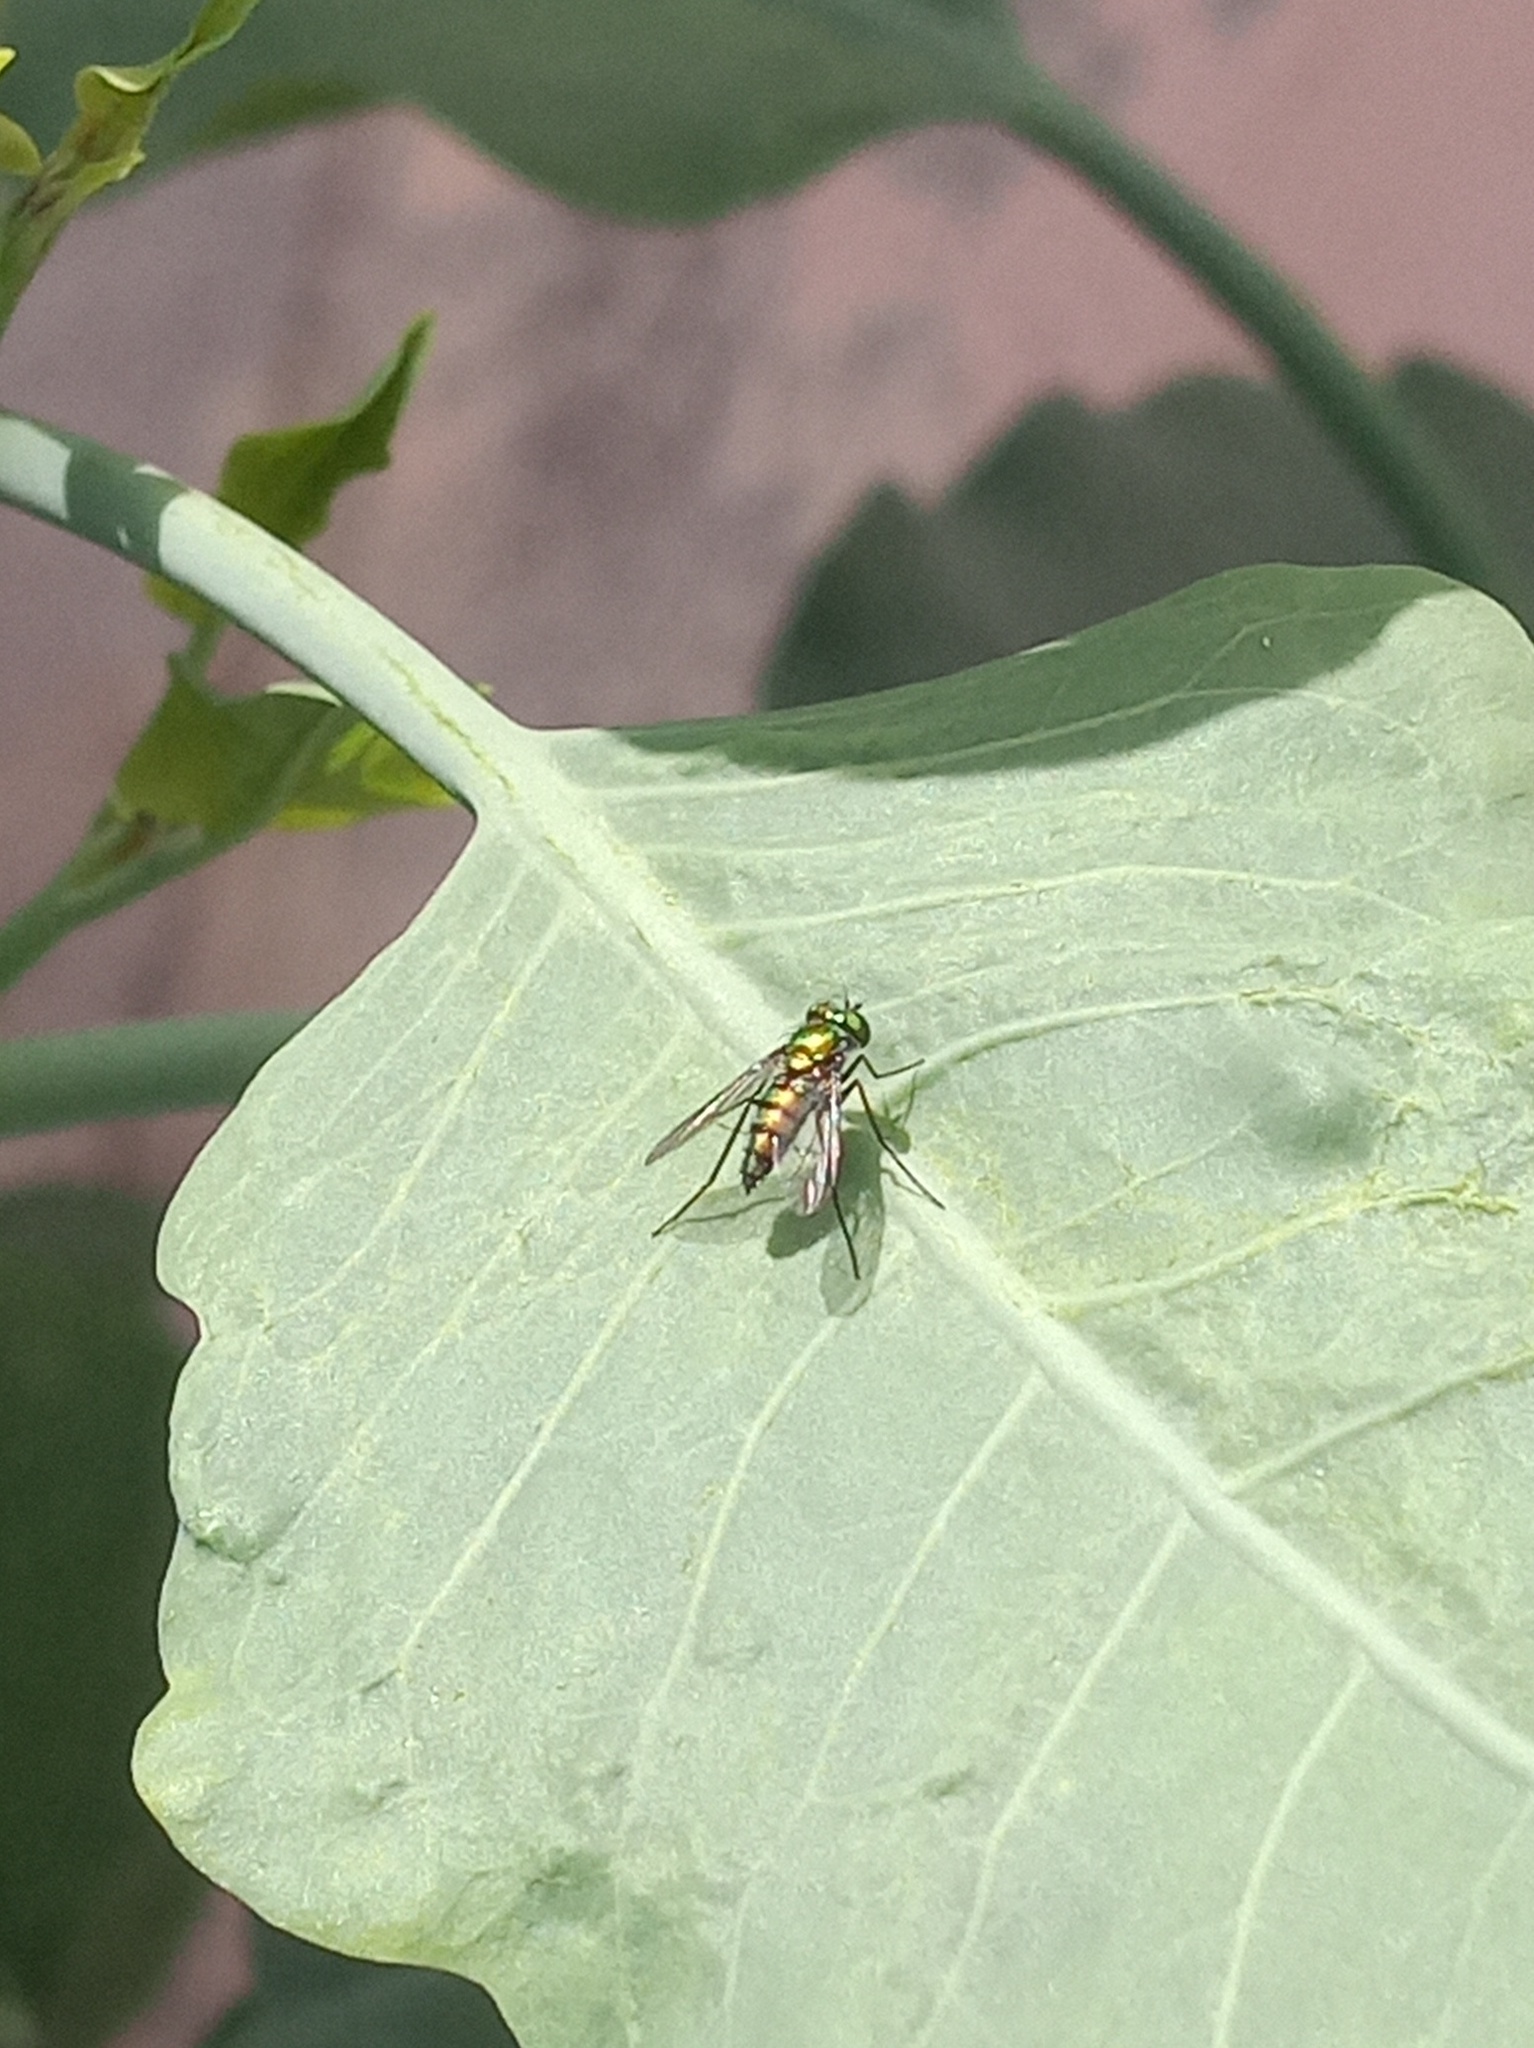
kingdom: Animalia
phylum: Arthropoda
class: Insecta
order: Diptera
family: Dolichopodidae
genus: Condylostylus
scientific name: Condylostylus longicornis
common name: Long-legged fly
